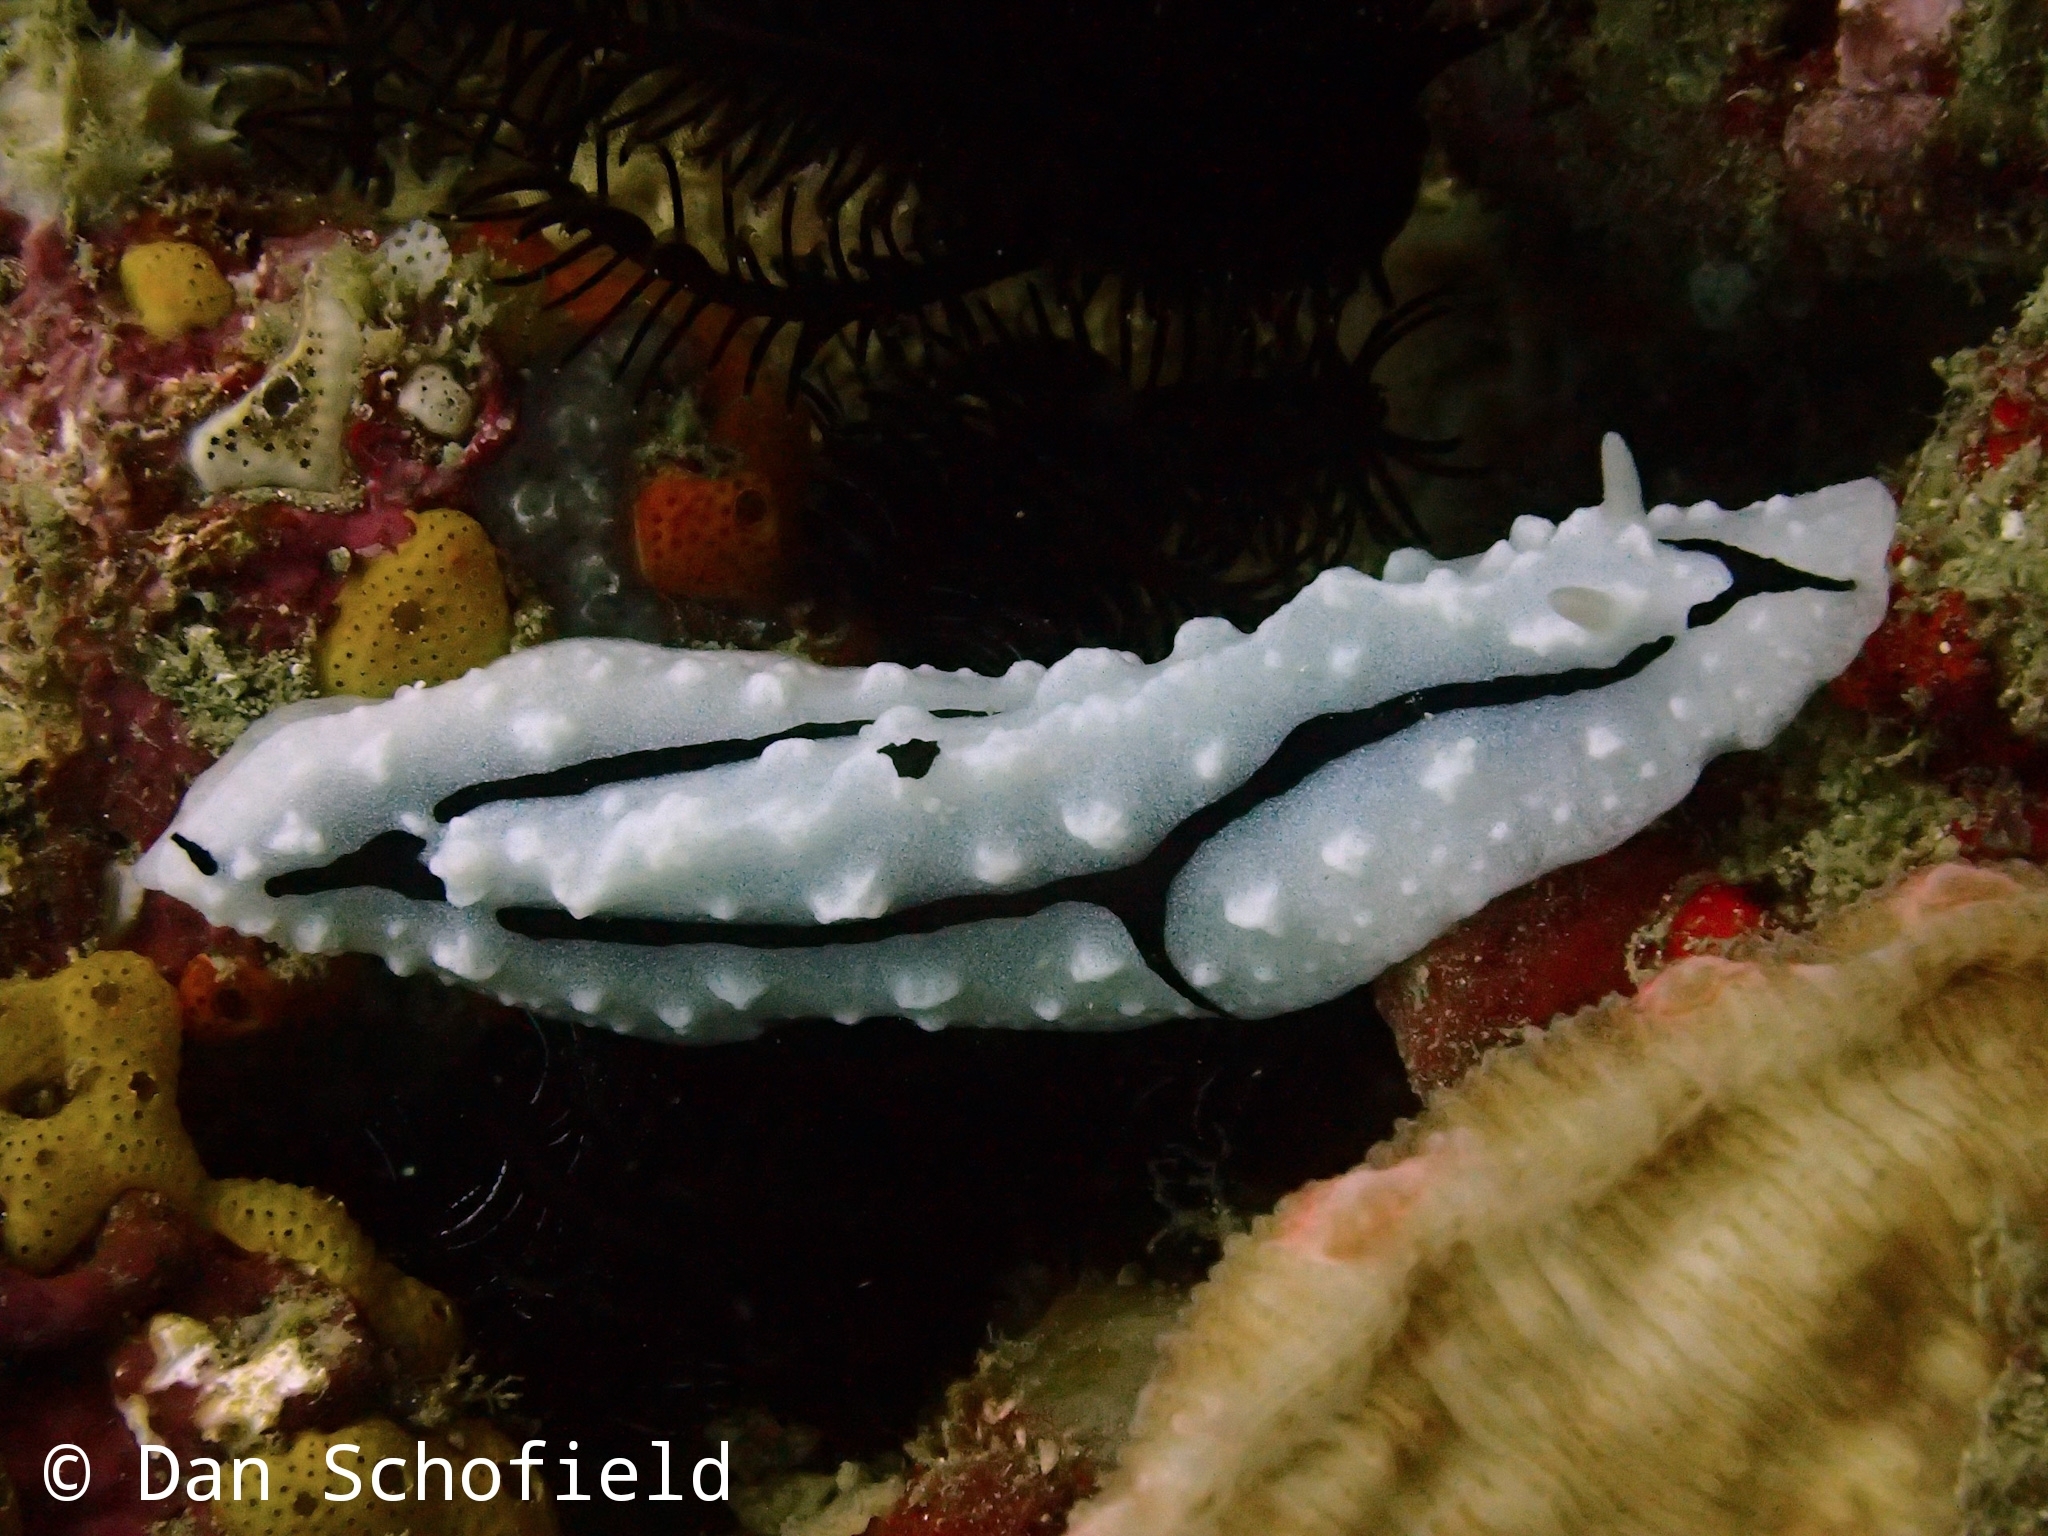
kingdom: Animalia
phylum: Mollusca
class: Gastropoda
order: Nudibranchia
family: Phyllidiidae
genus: Phyllidiopsis
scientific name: Phyllidiopsis shireenae
